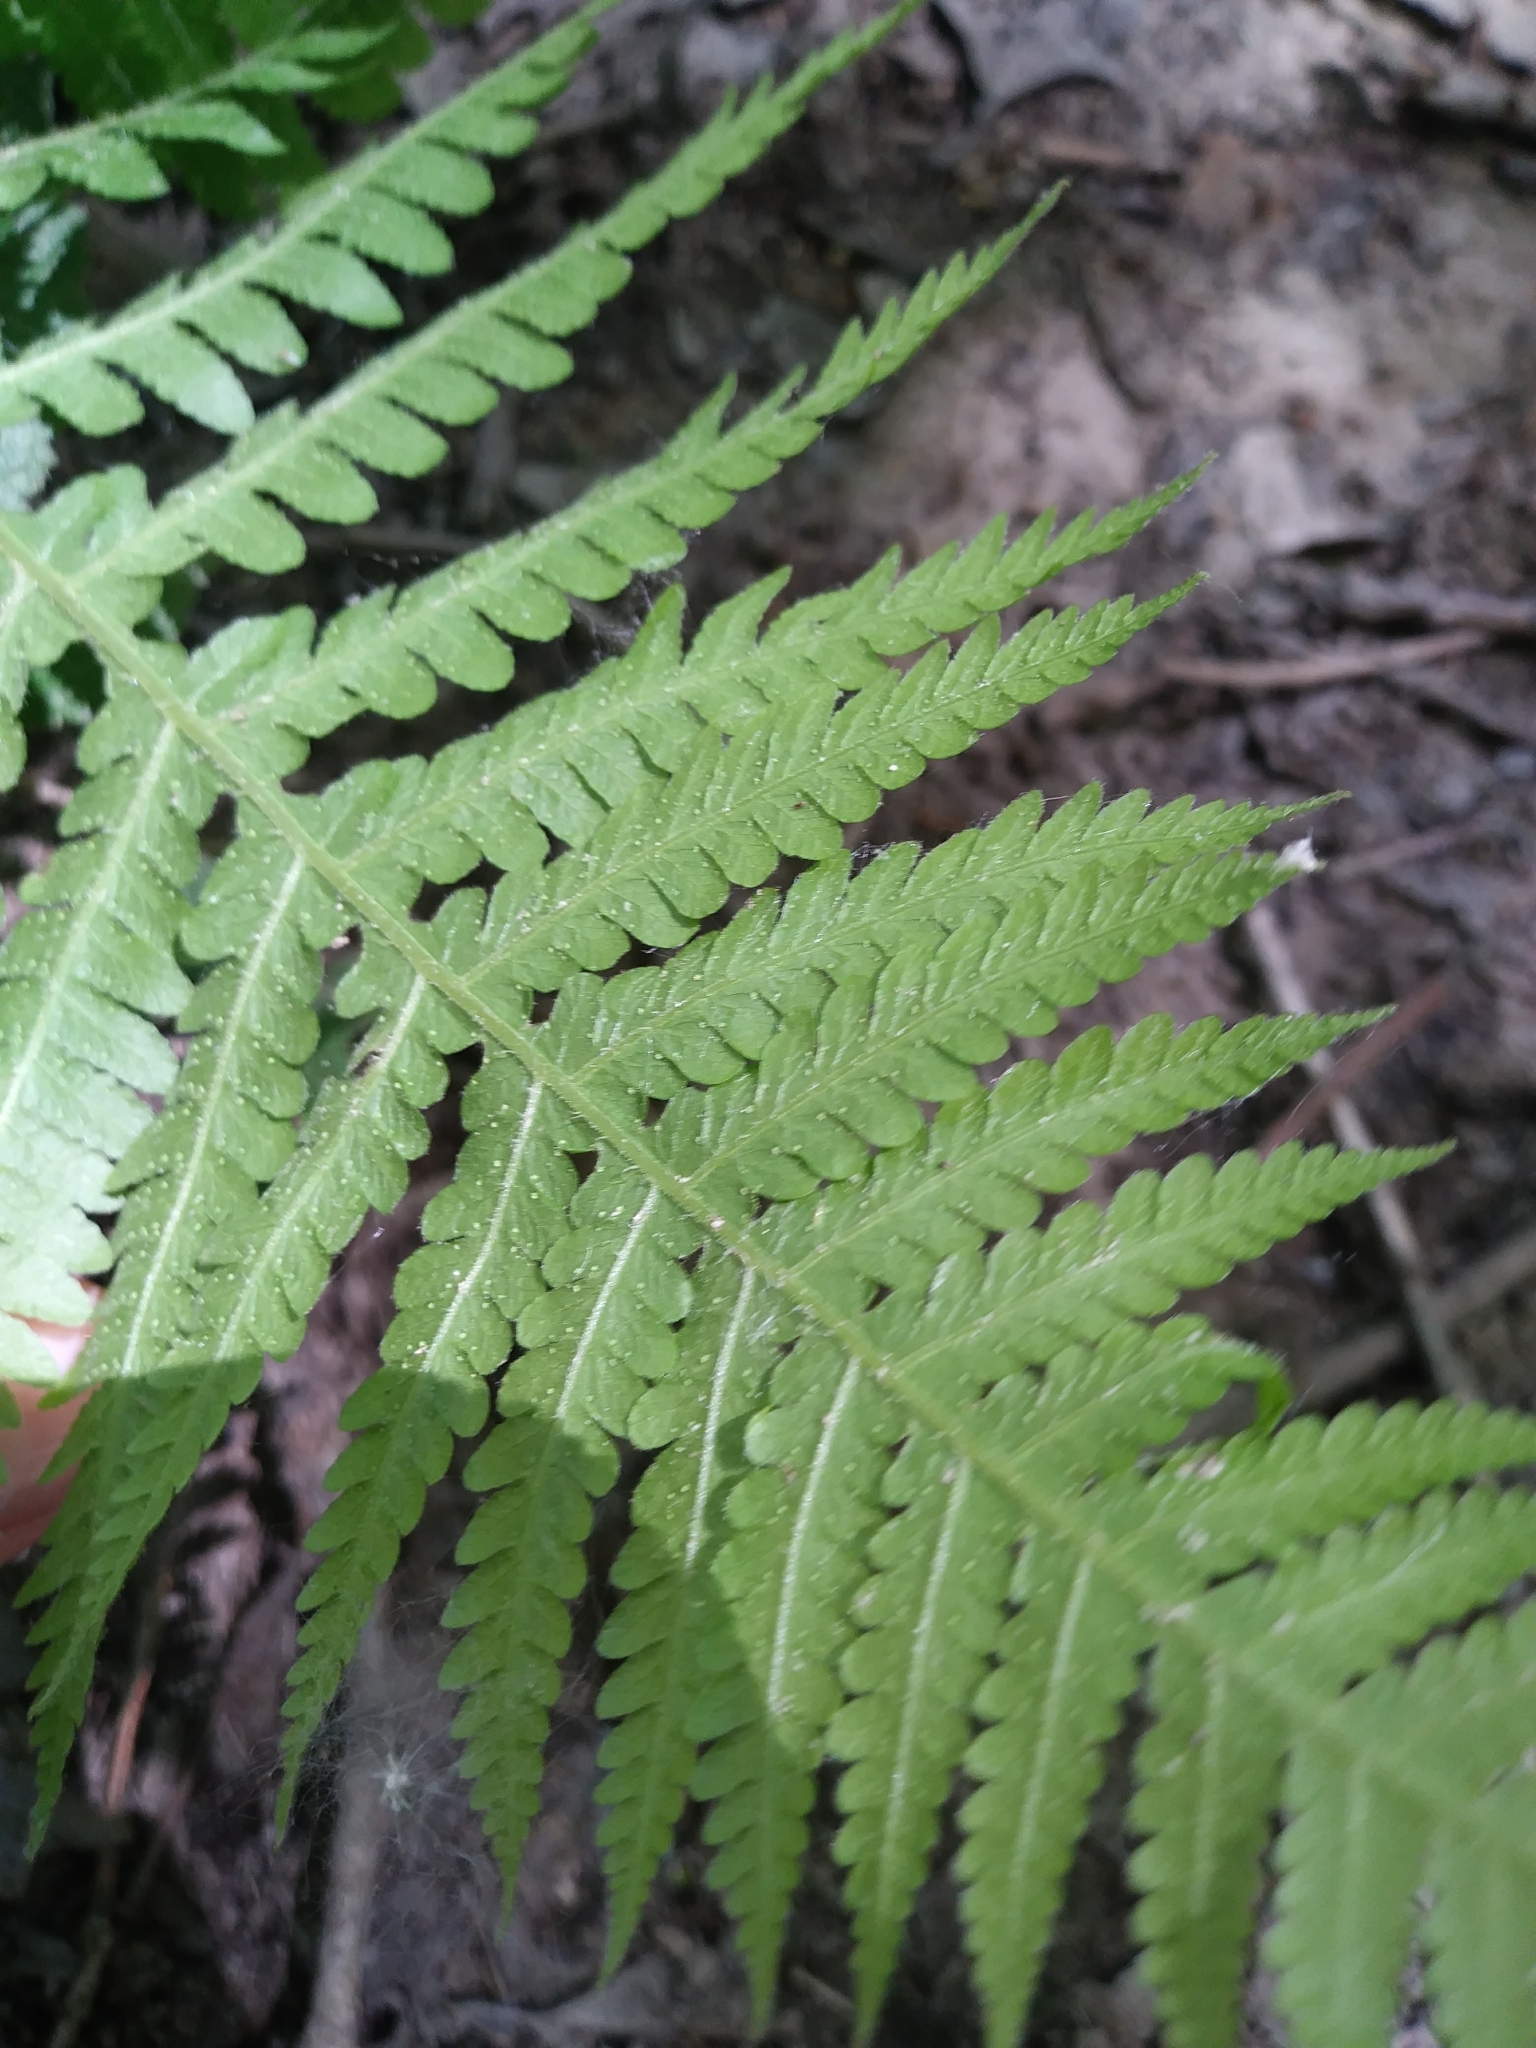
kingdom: Plantae
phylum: Tracheophyta
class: Polypodiopsida
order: Polypodiales
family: Thelypteridaceae
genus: Phegopteris
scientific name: Phegopteris hexagonoptera
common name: Broad beech fern
